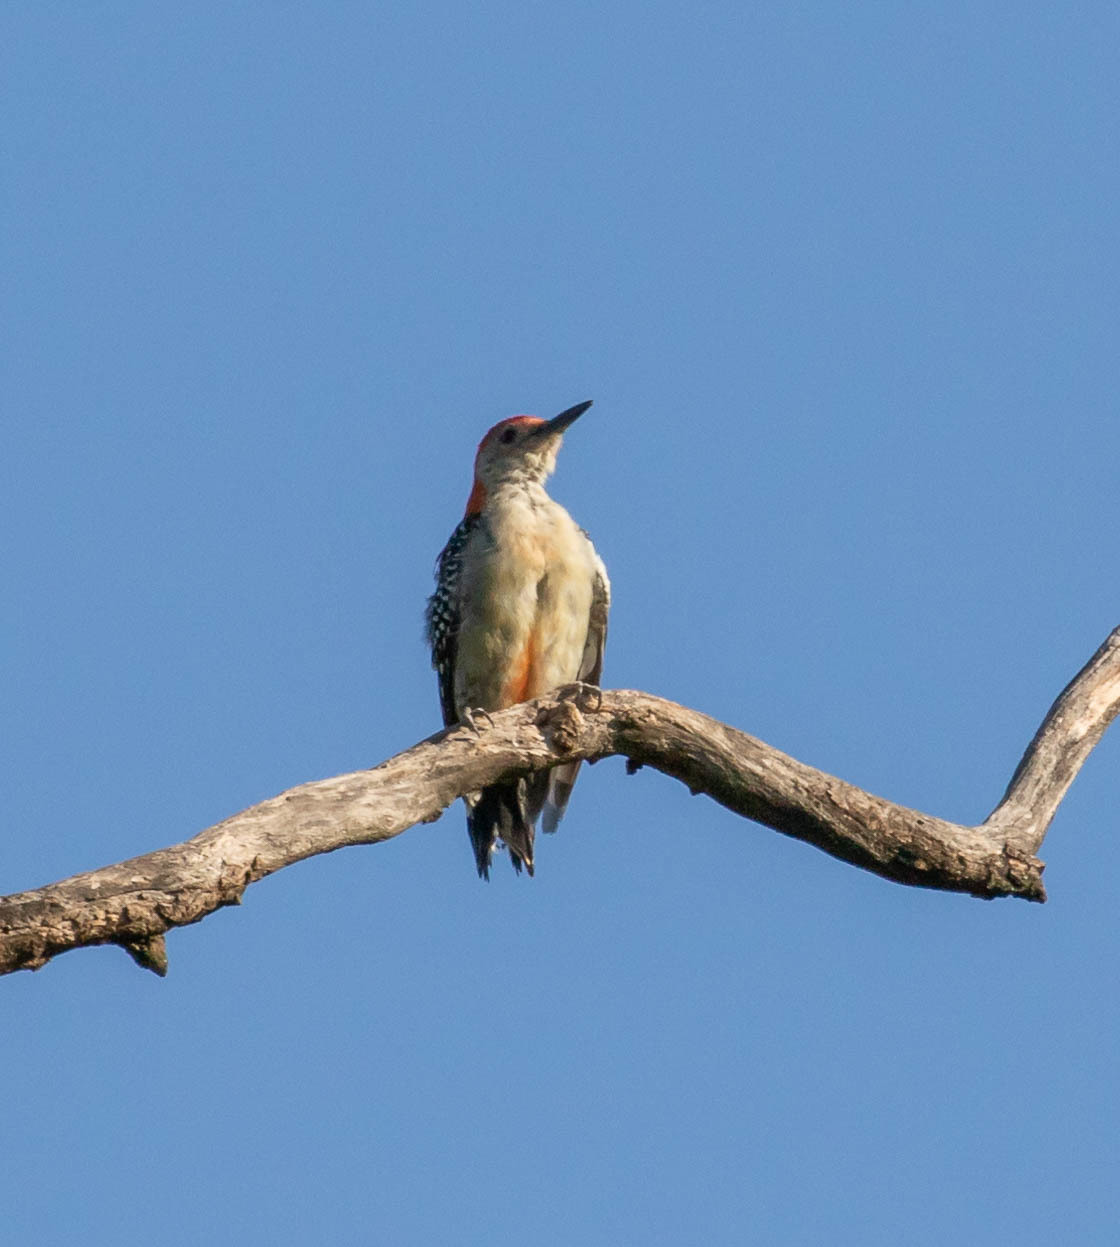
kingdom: Animalia
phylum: Chordata
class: Aves
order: Piciformes
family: Picidae
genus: Melanerpes
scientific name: Melanerpes carolinus
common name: Red-bellied woodpecker
